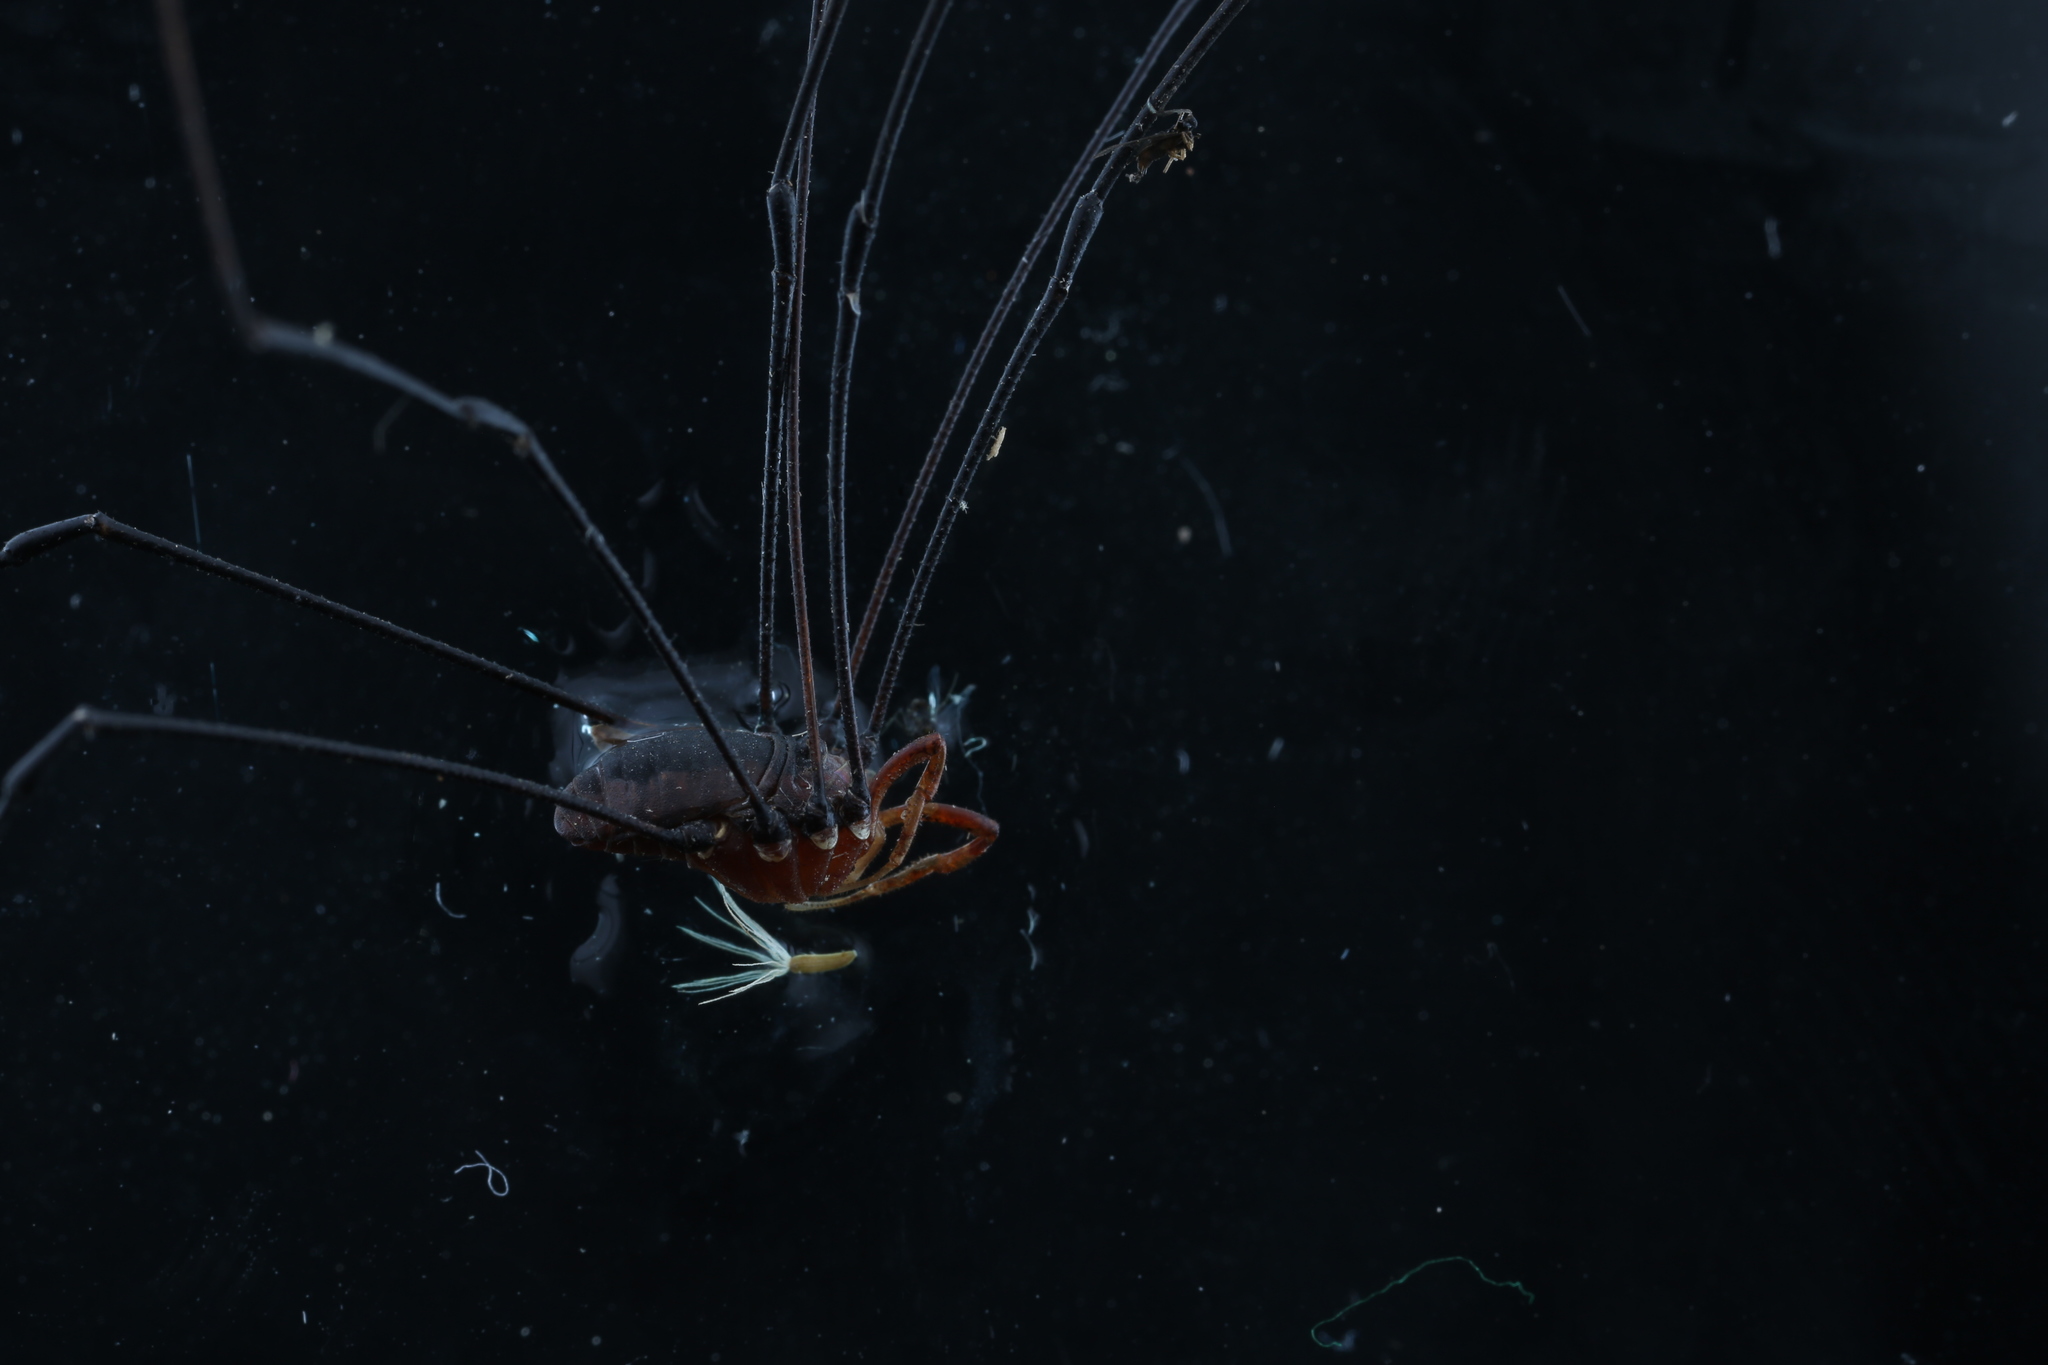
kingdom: Animalia
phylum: Arthropoda
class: Arachnida
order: Opiliones
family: Sclerosomatidae
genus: Leiobunum
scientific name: Leiobunum vittatum
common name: Eastern harvestman
